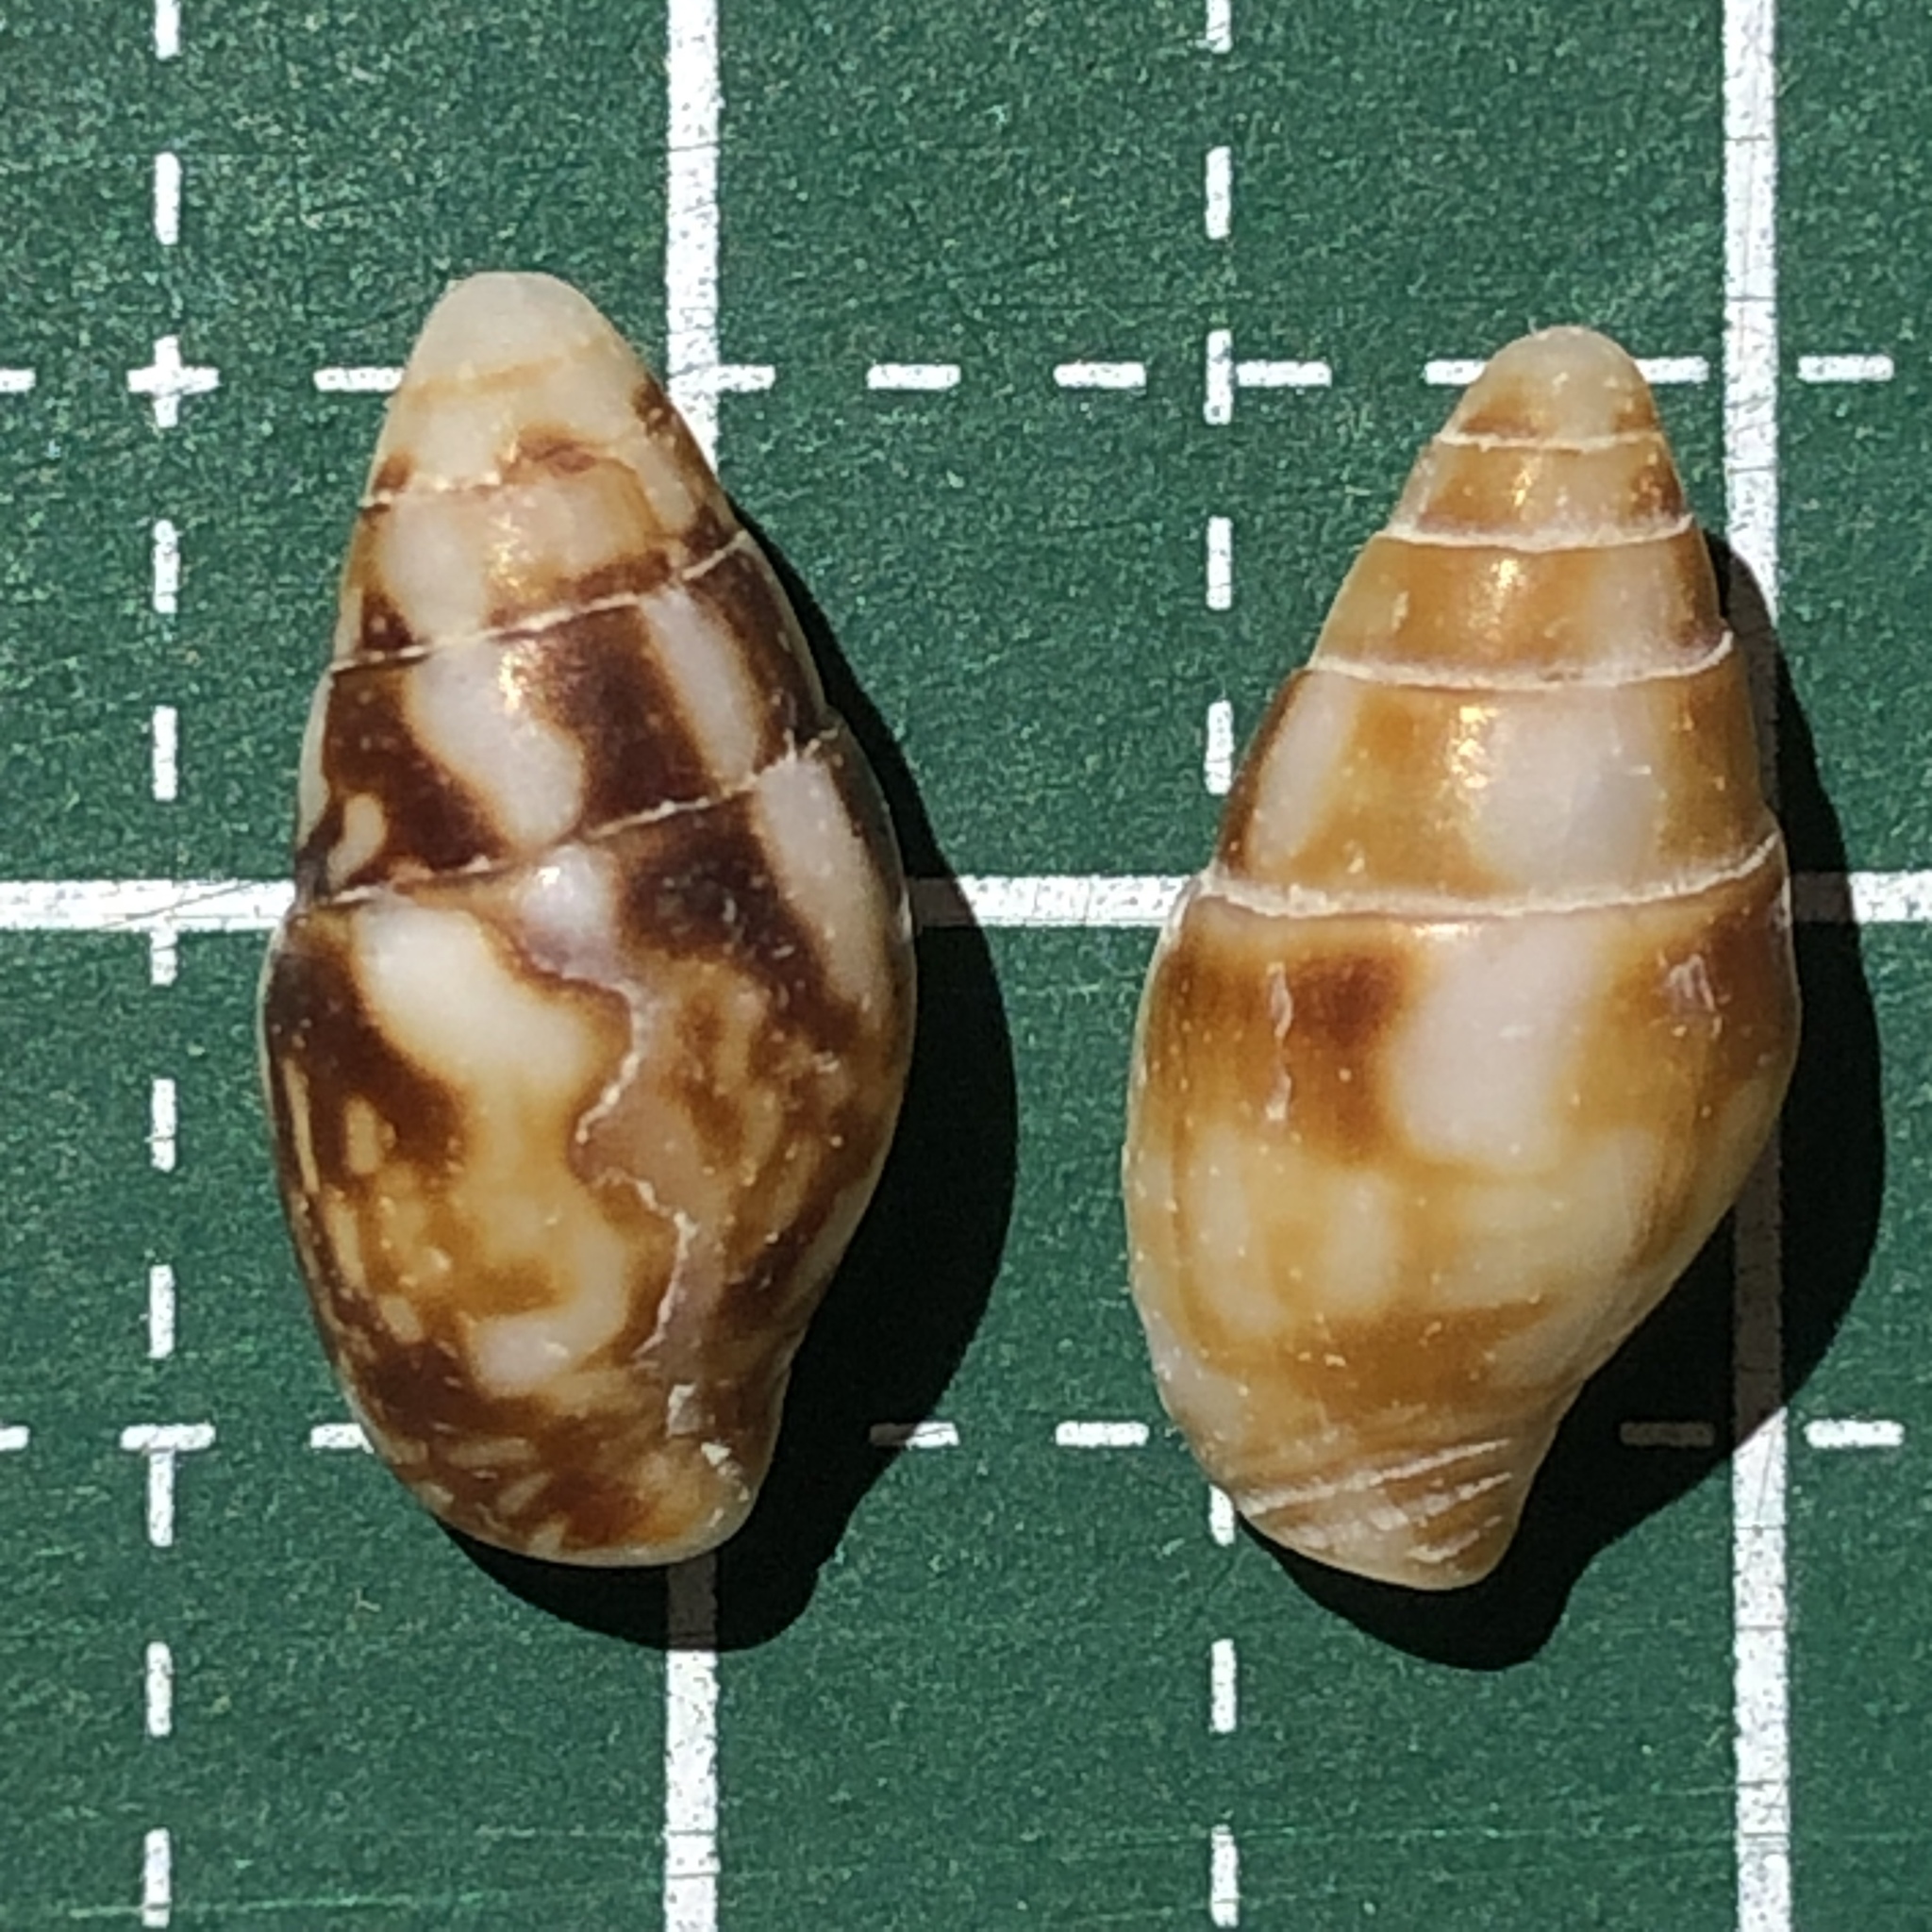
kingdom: Animalia
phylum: Mollusca
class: Gastropoda
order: Neogastropoda
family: Columbellidae
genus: Pyrene
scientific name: Pyrene flava
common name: Yellow dovesnail
